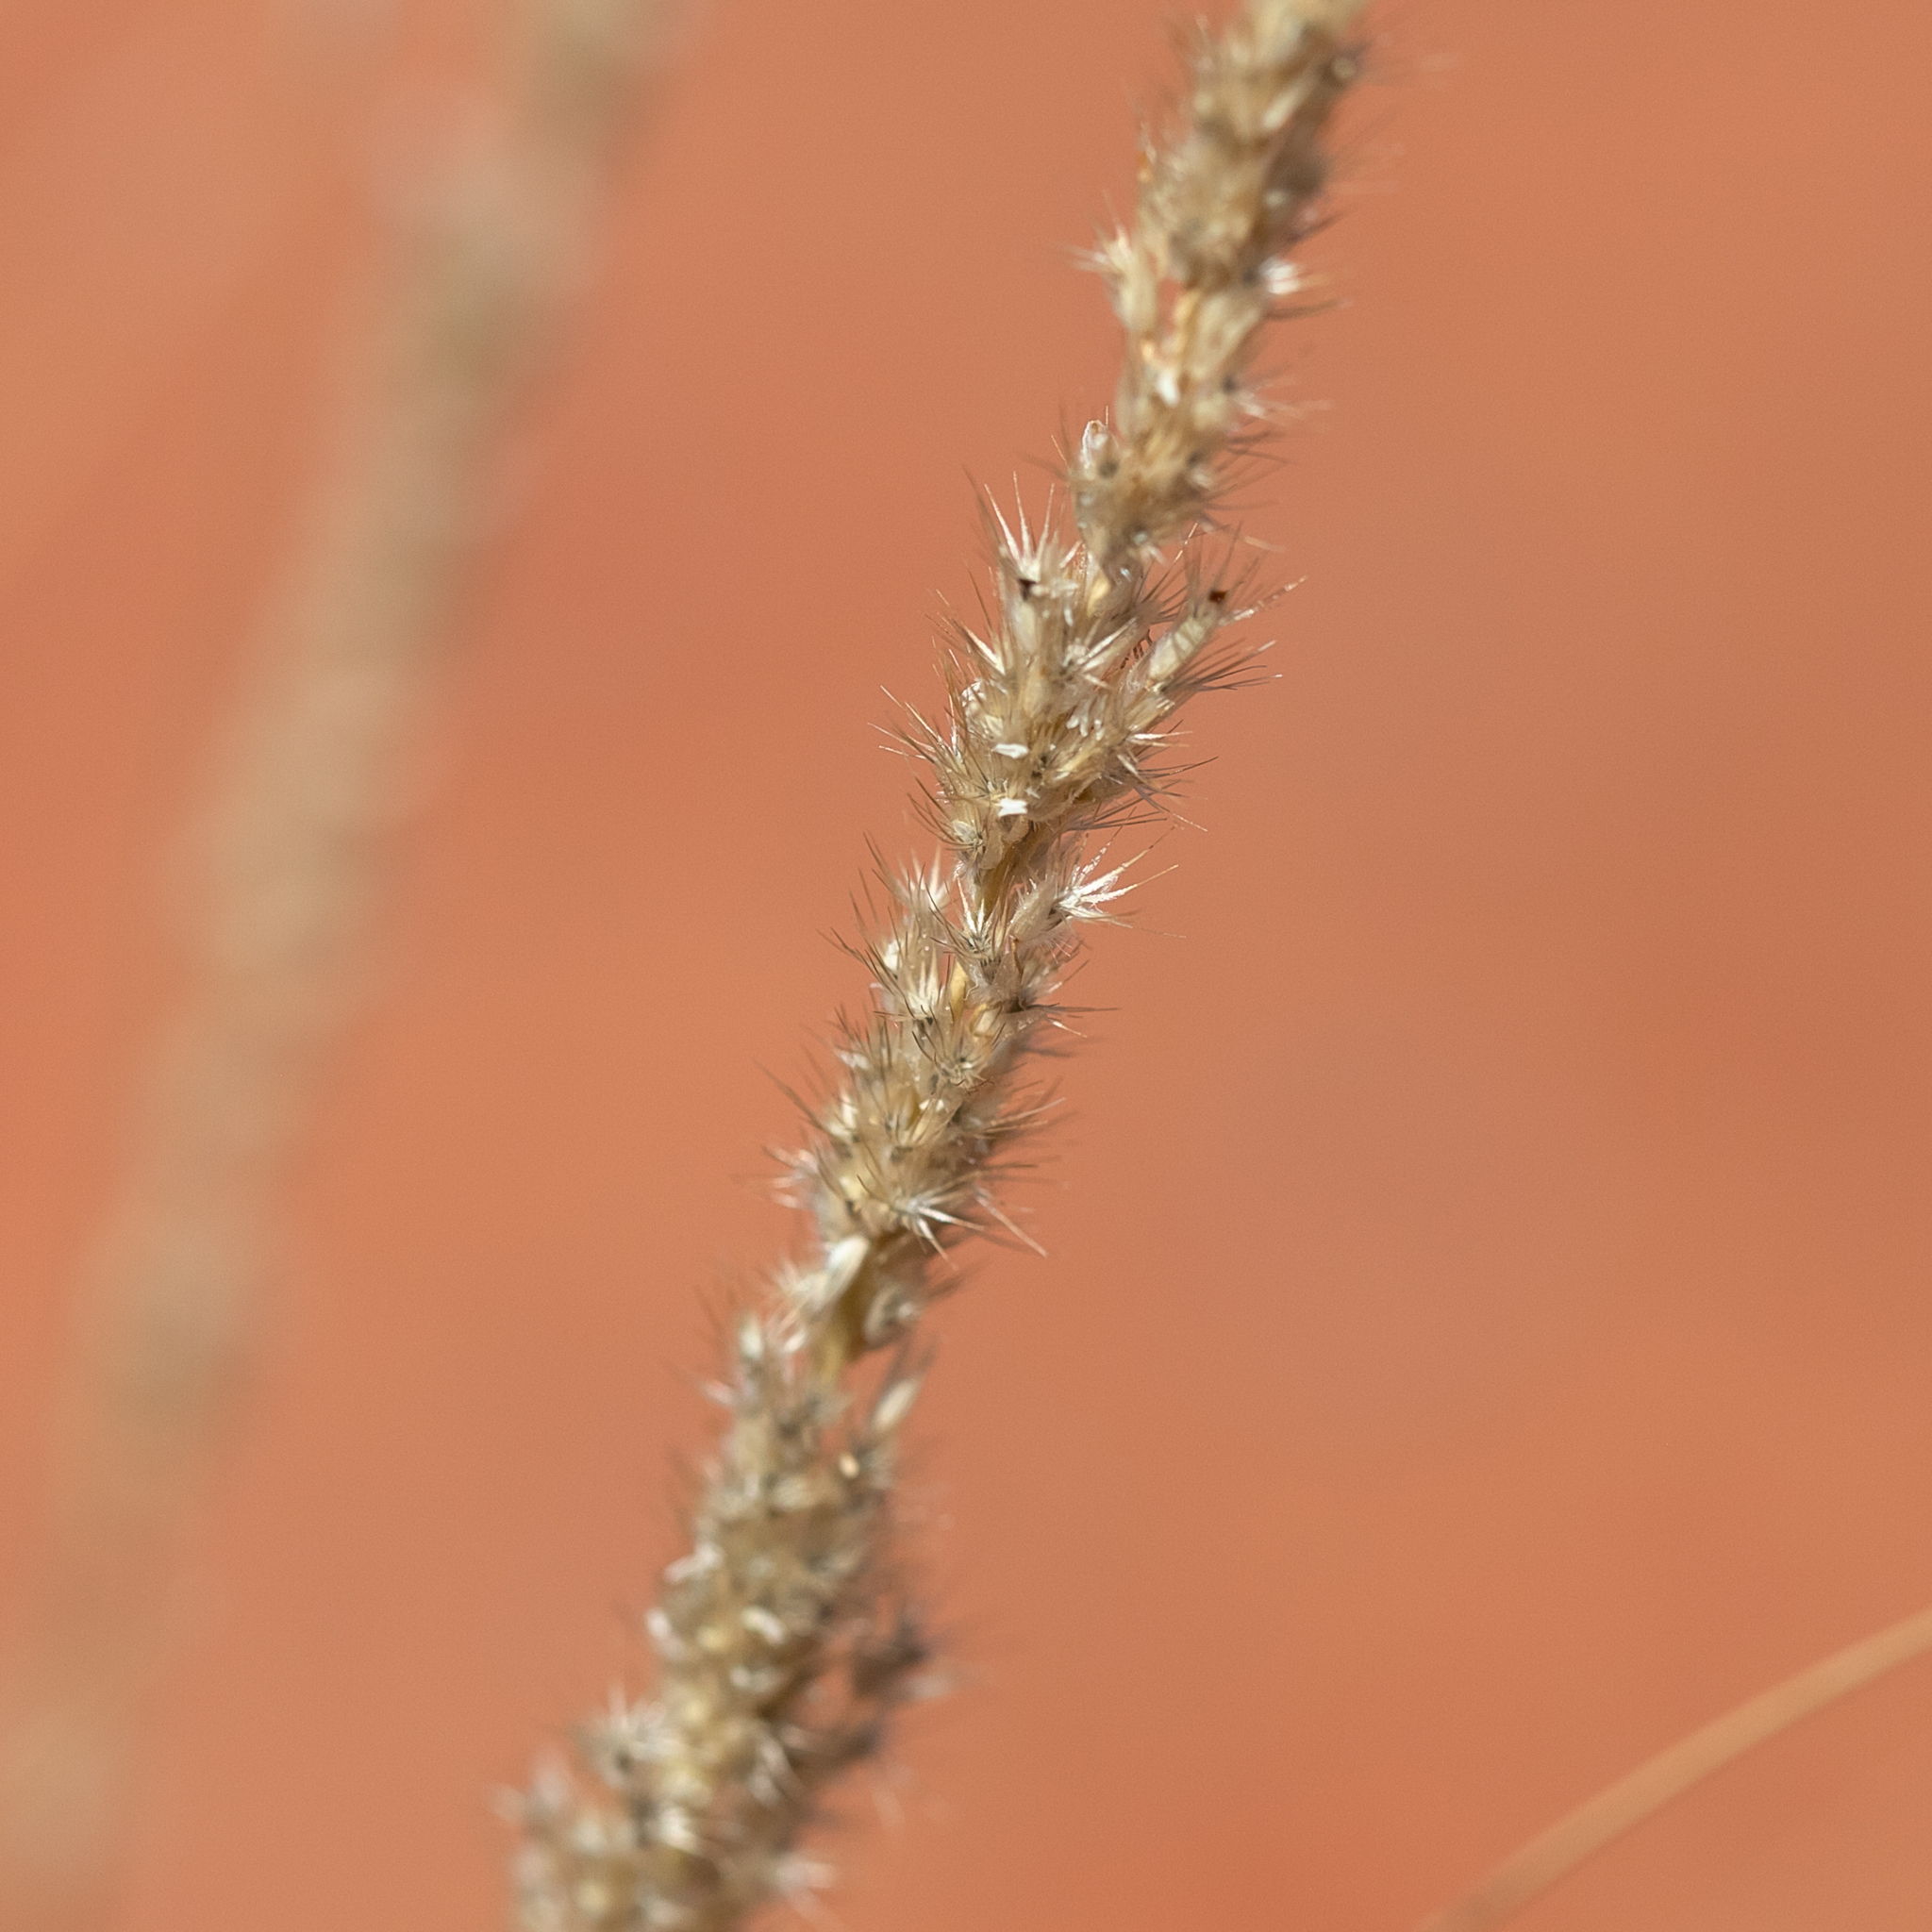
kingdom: Plantae
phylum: Tracheophyta
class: Liliopsida
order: Poales
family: Poaceae
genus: Enneapogon
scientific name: Enneapogon cylindricus
